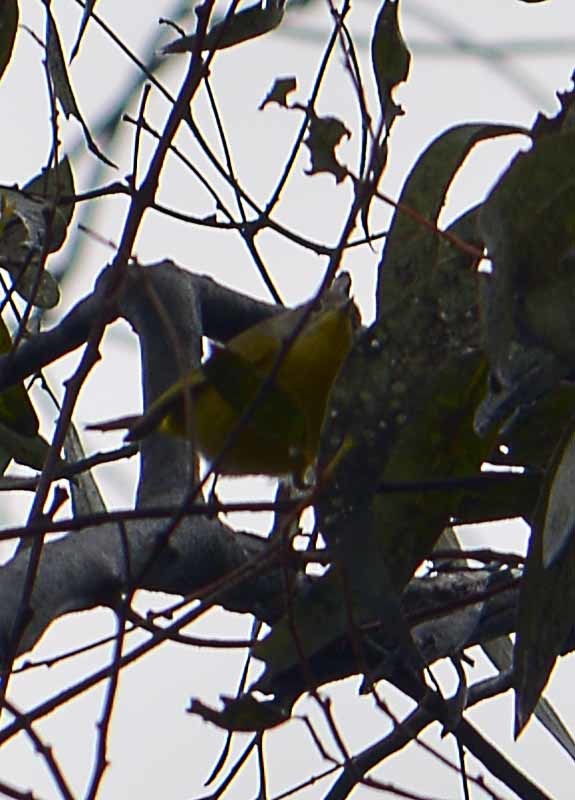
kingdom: Animalia
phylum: Chordata
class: Aves
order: Passeriformes
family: Parulidae
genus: Leiothlypis
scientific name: Leiothlypis ruficapilla
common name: Nashville warbler
